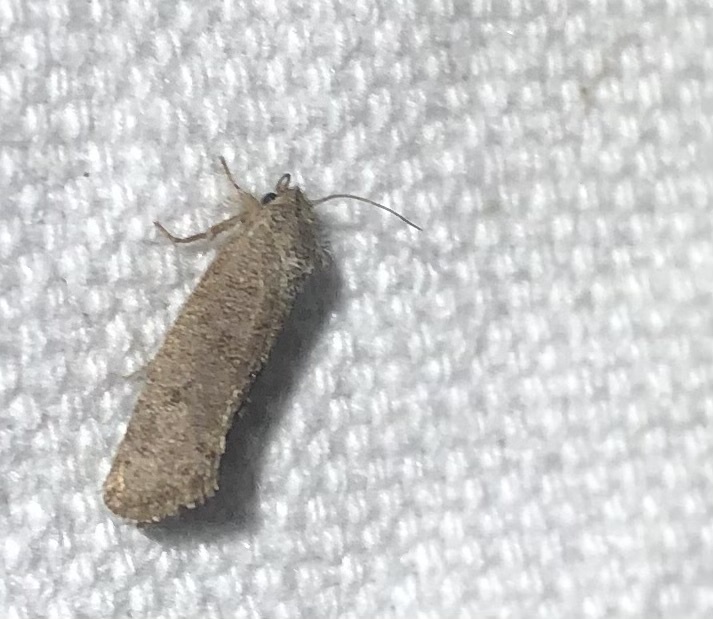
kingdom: Animalia
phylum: Arthropoda
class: Insecta
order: Lepidoptera
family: Tineidae
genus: Acrolophus
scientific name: Acrolophus heppneri
